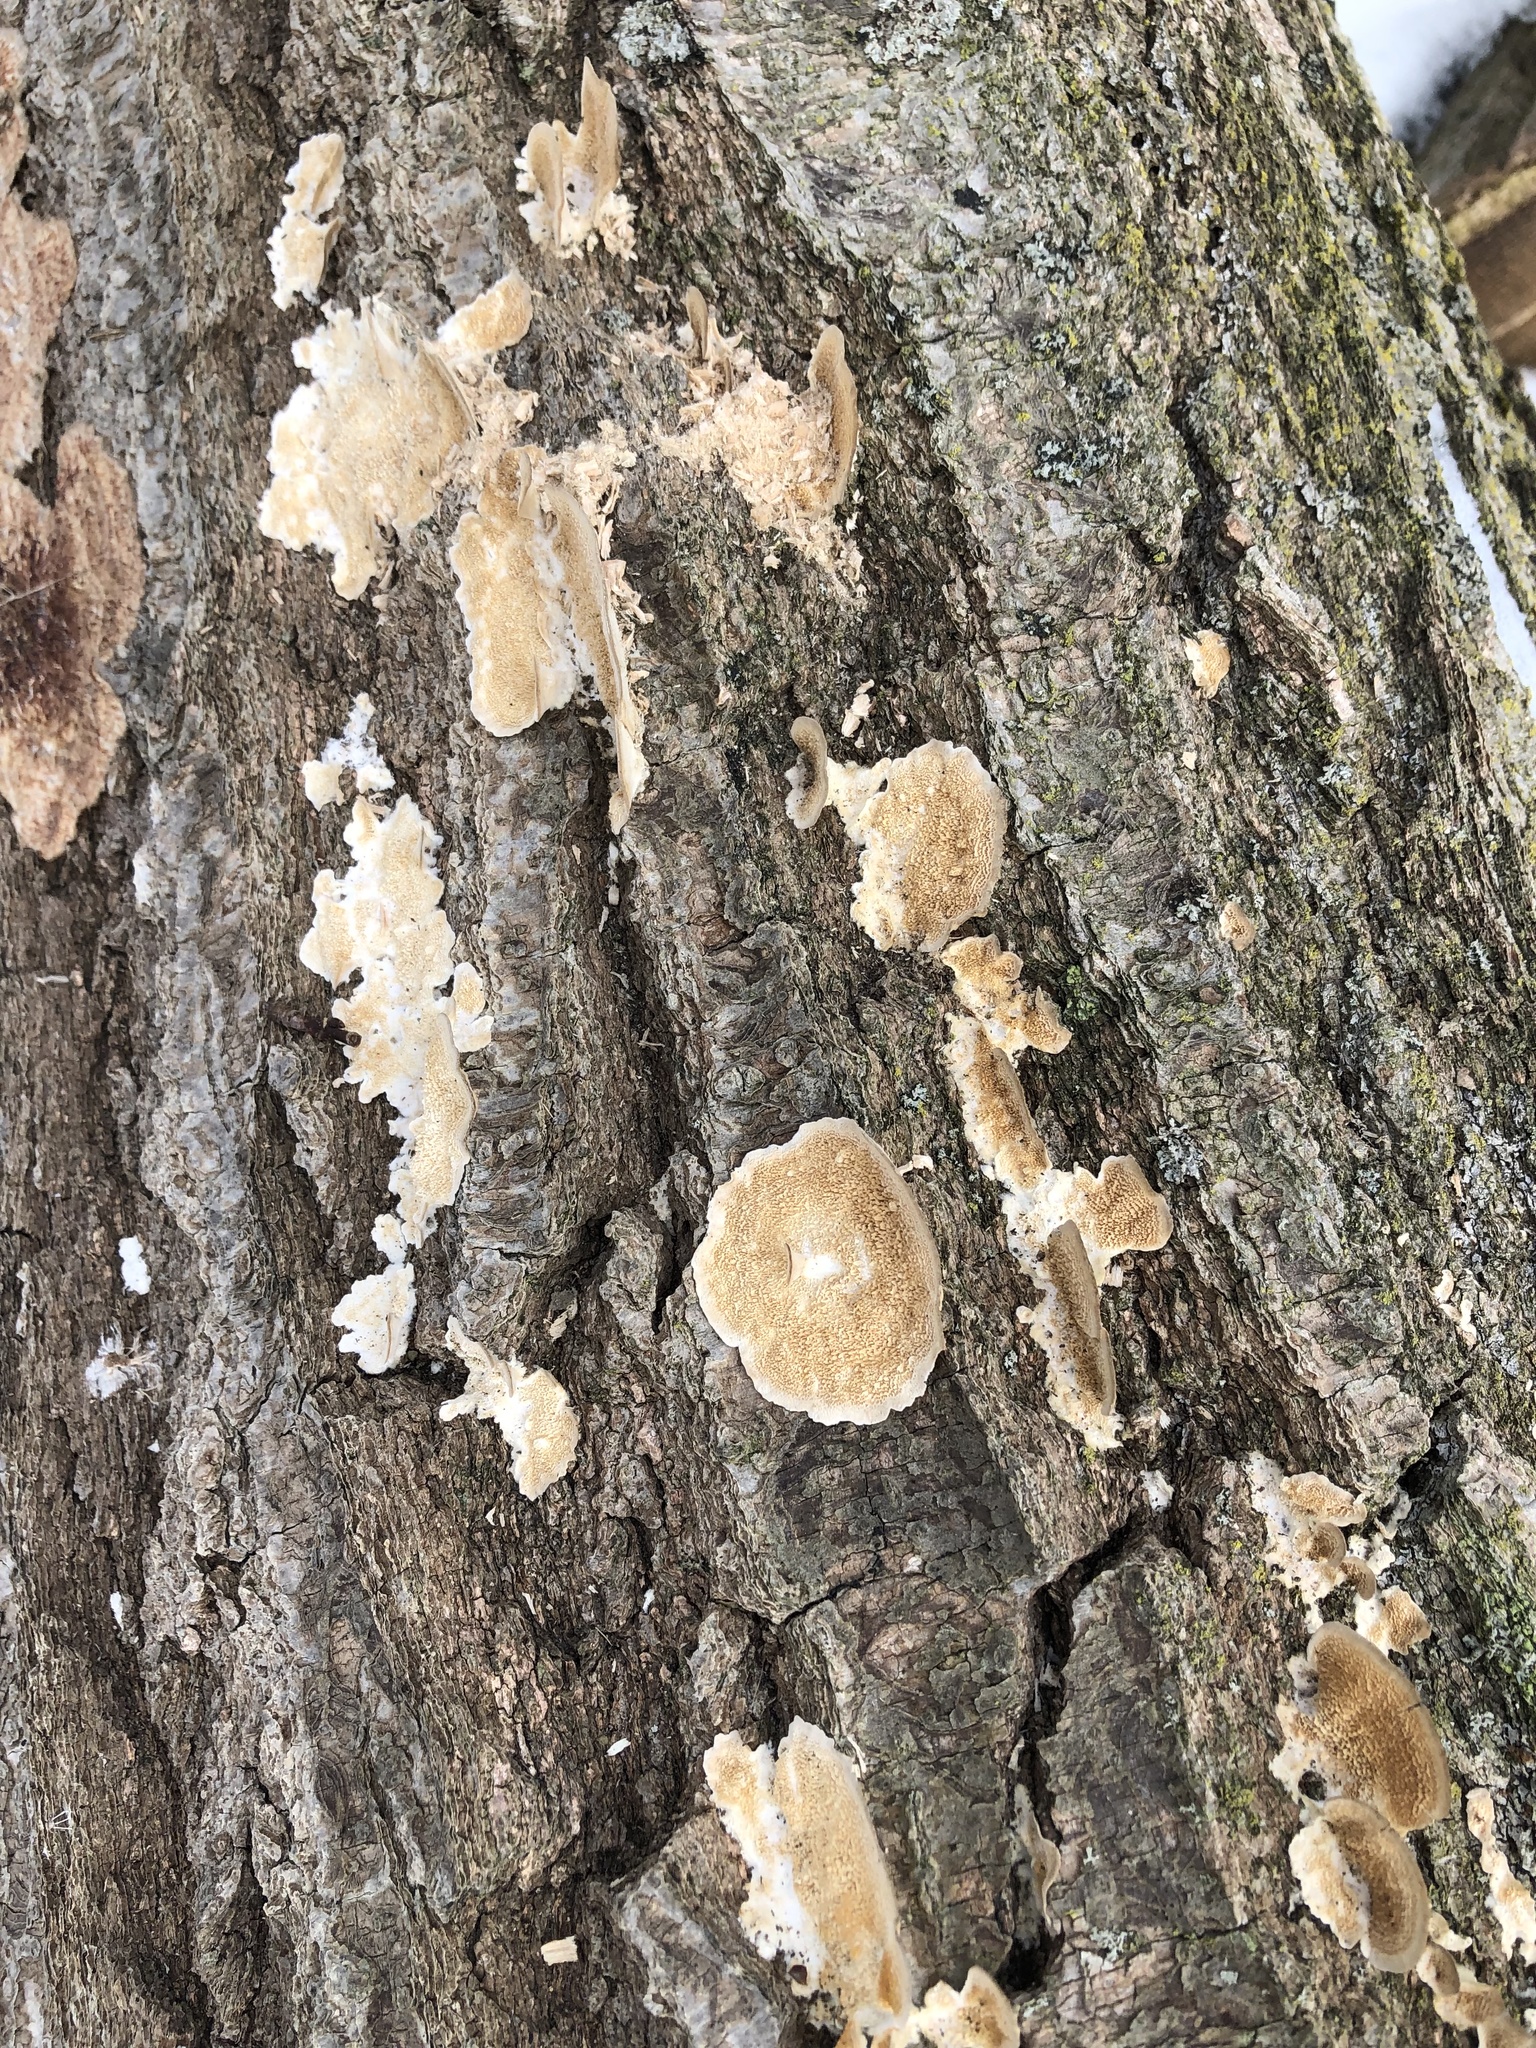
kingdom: Fungi
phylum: Basidiomycota
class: Agaricomycetes
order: Polyporales
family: Steccherinaceae
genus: Steccherinum
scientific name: Steccherinum ochraceum
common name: Ochre spreading tooth
